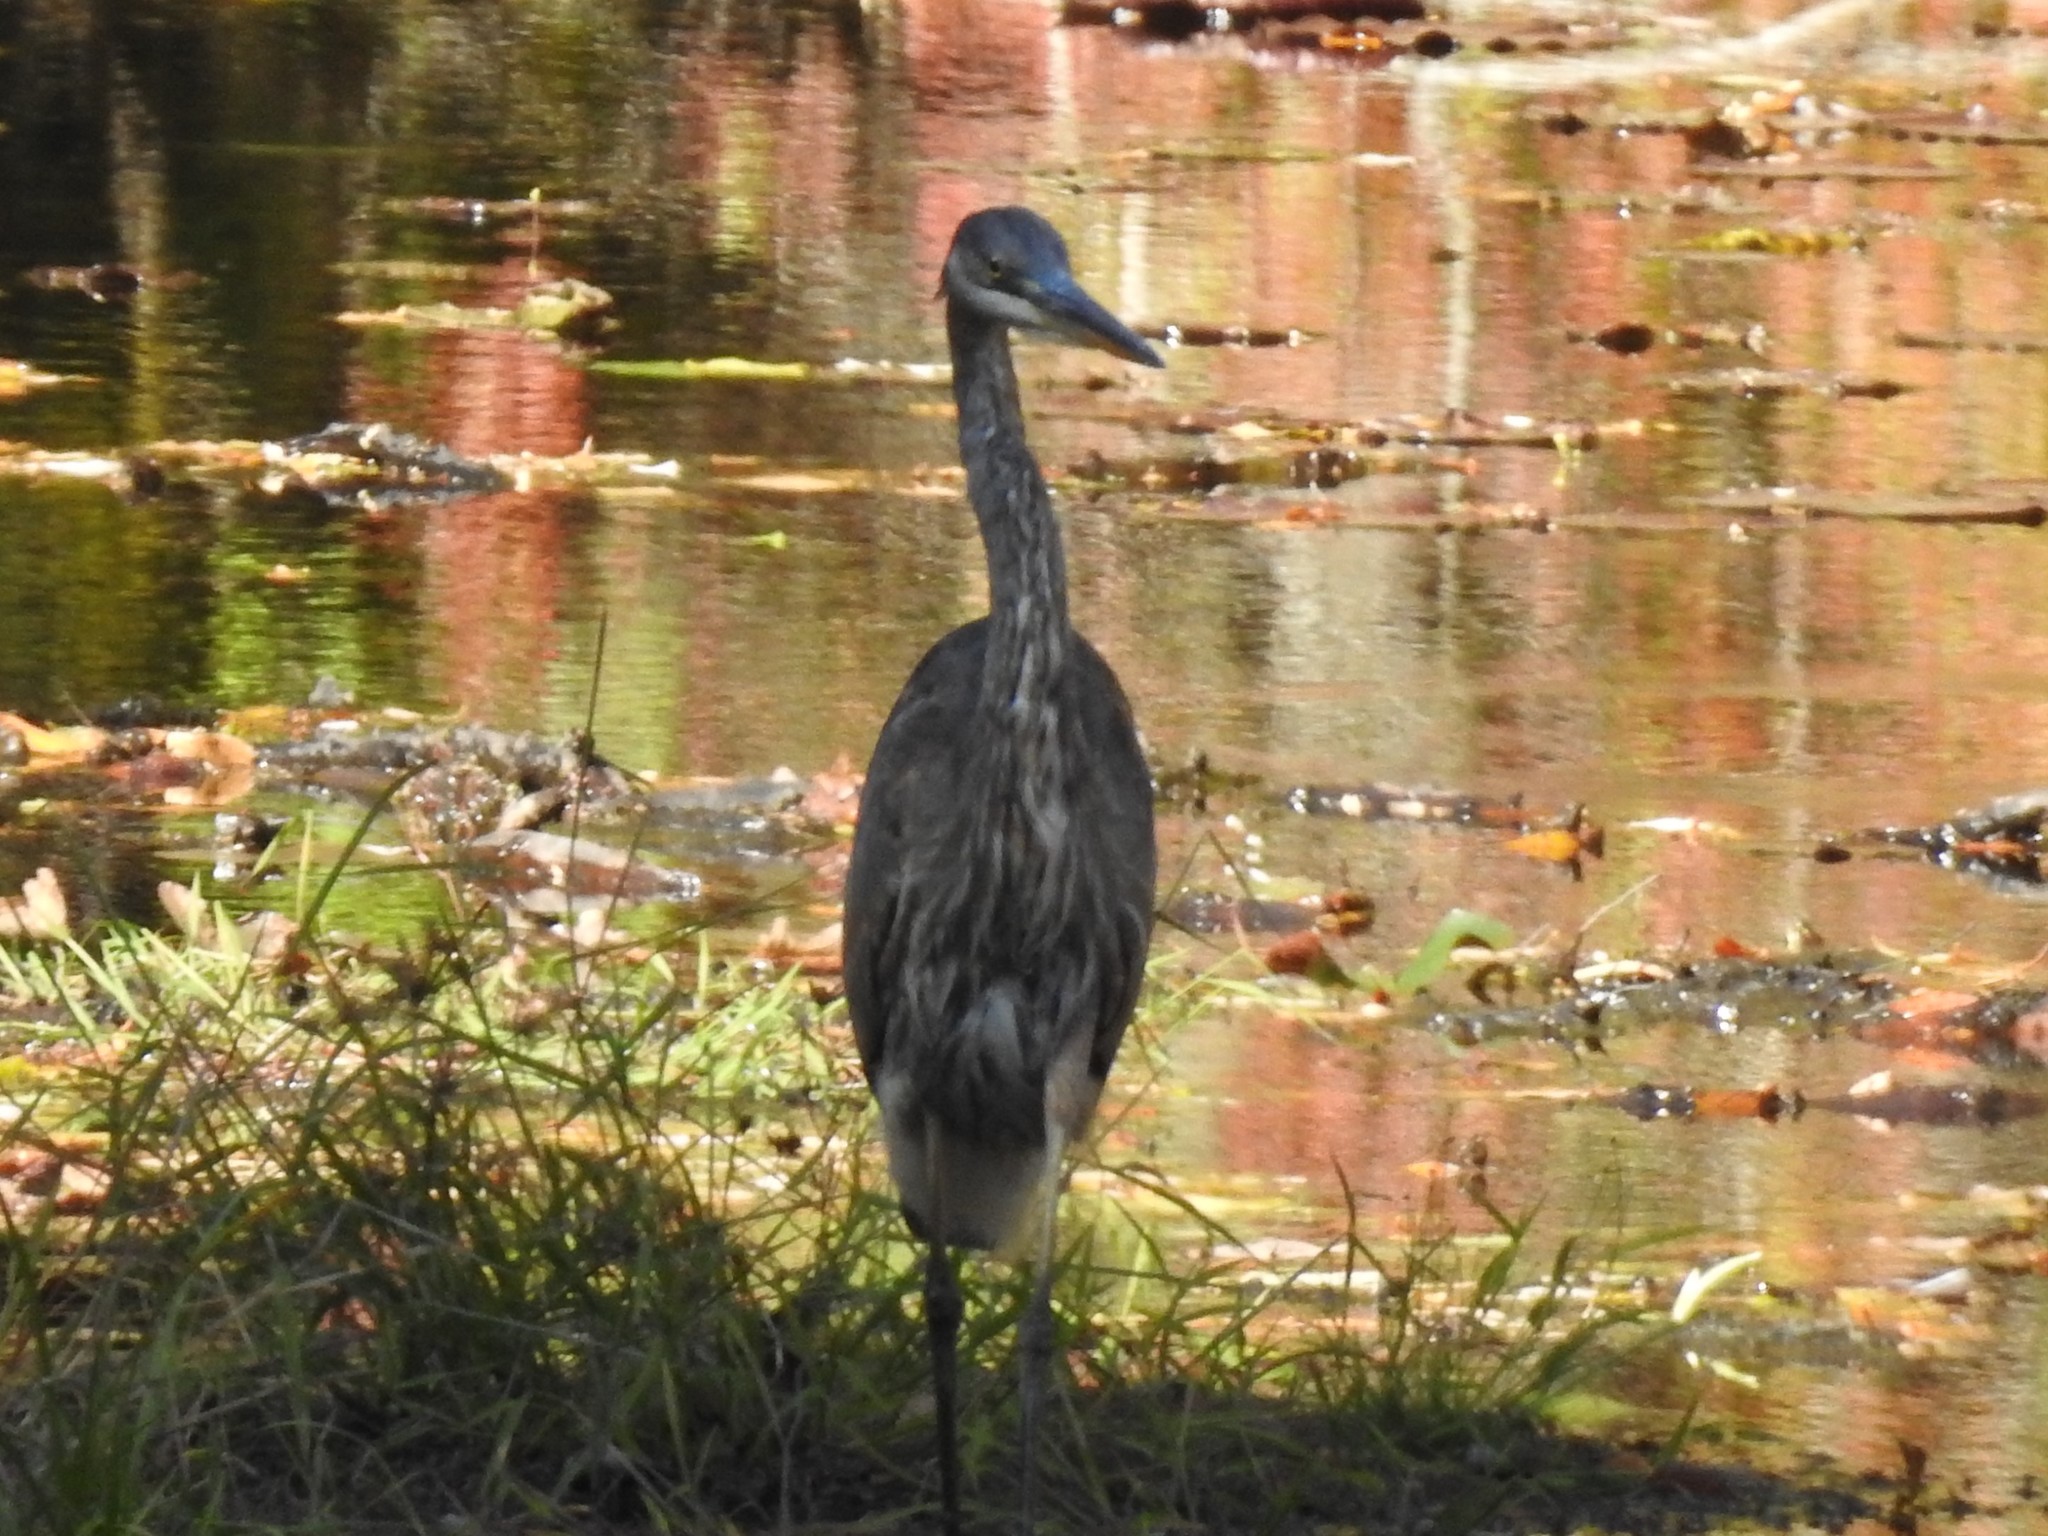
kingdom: Animalia
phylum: Chordata
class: Aves
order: Pelecaniformes
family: Ardeidae
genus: Ardea
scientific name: Ardea herodias
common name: Great blue heron
